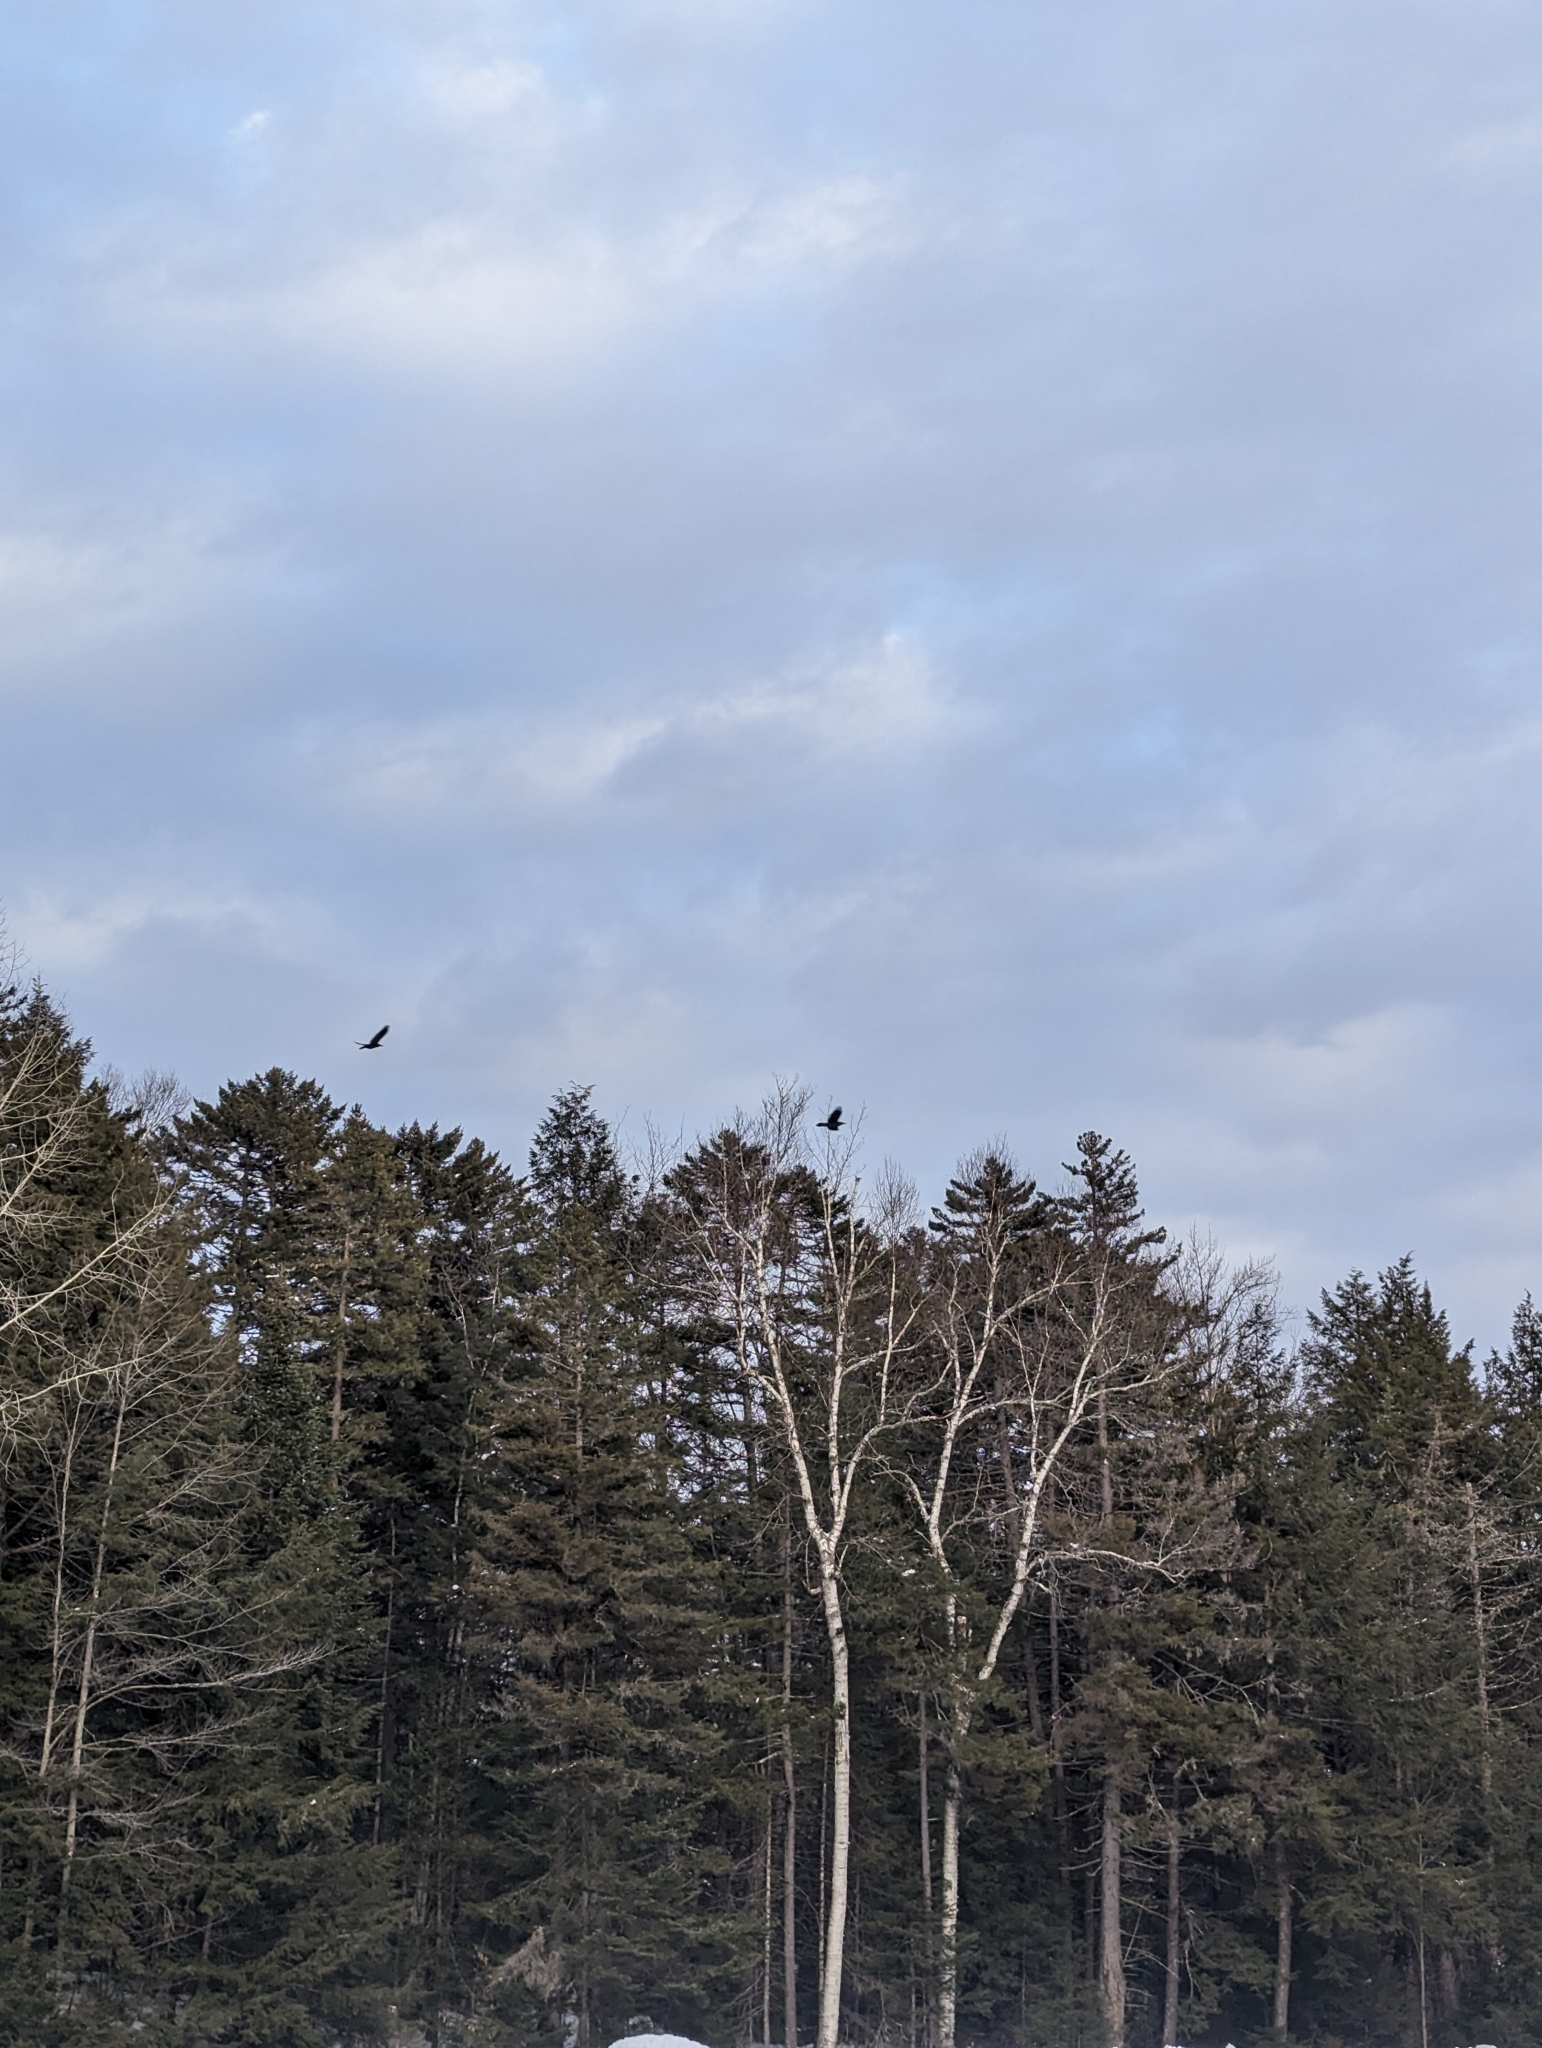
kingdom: Animalia
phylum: Chordata
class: Aves
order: Passeriformes
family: Corvidae
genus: Corvus
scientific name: Corvus corax
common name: Common raven
